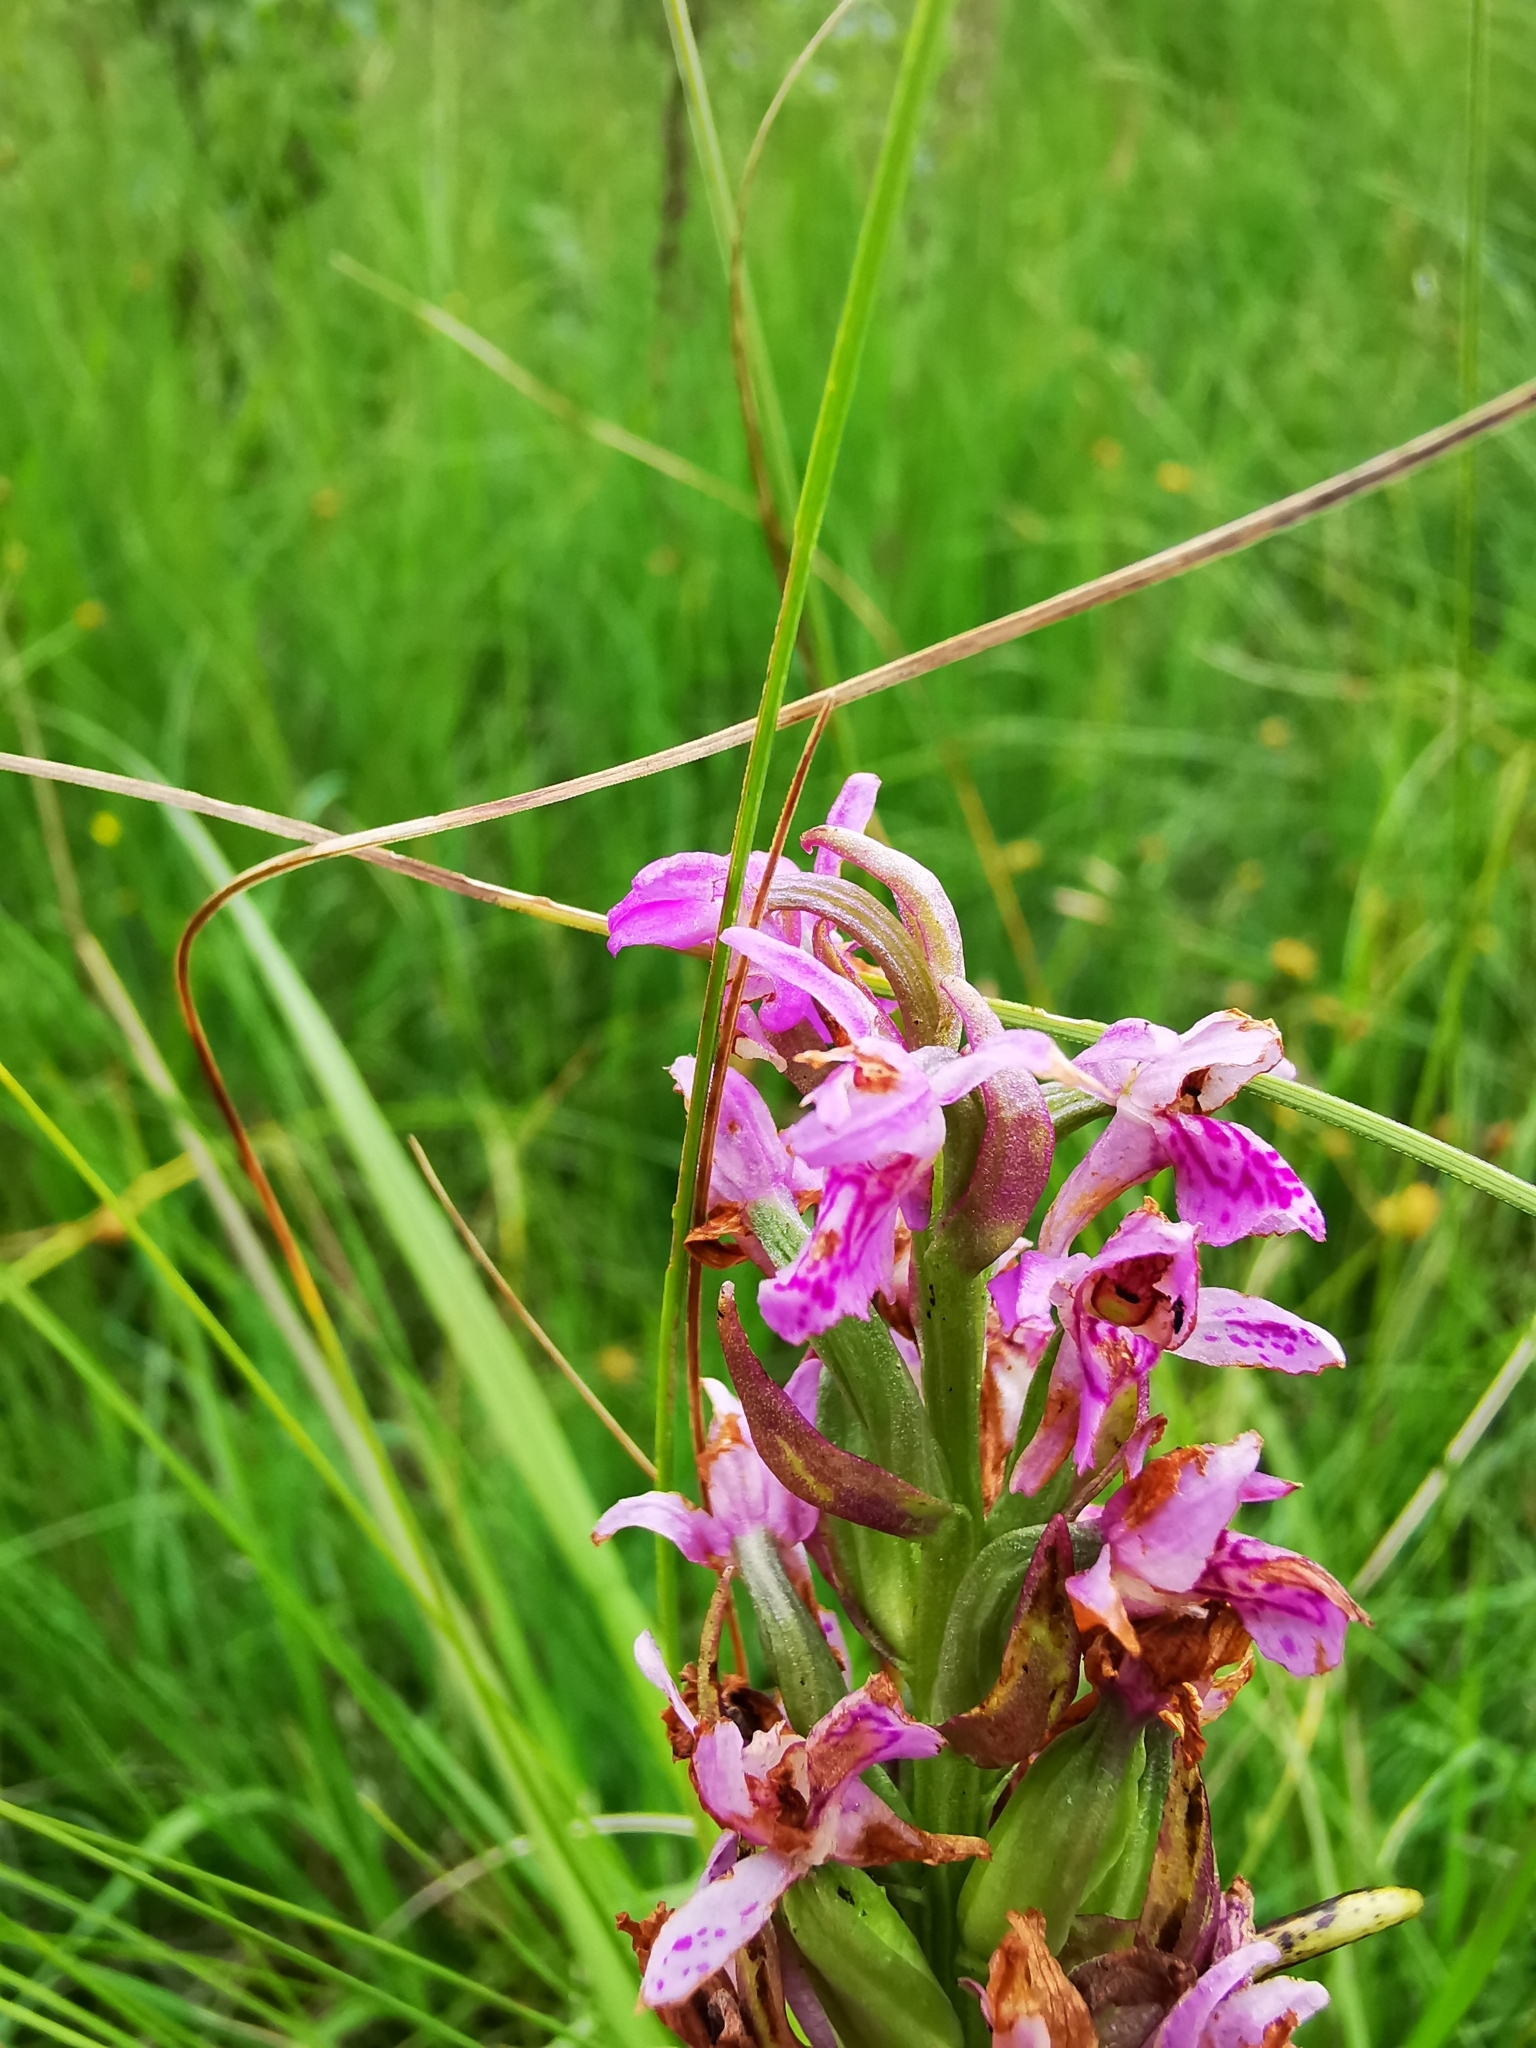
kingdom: Plantae
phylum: Tracheophyta
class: Liliopsida
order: Asparagales
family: Orchidaceae
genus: Dactylorhiza
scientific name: Dactylorhiza incarnata
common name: Early marsh-orchid
